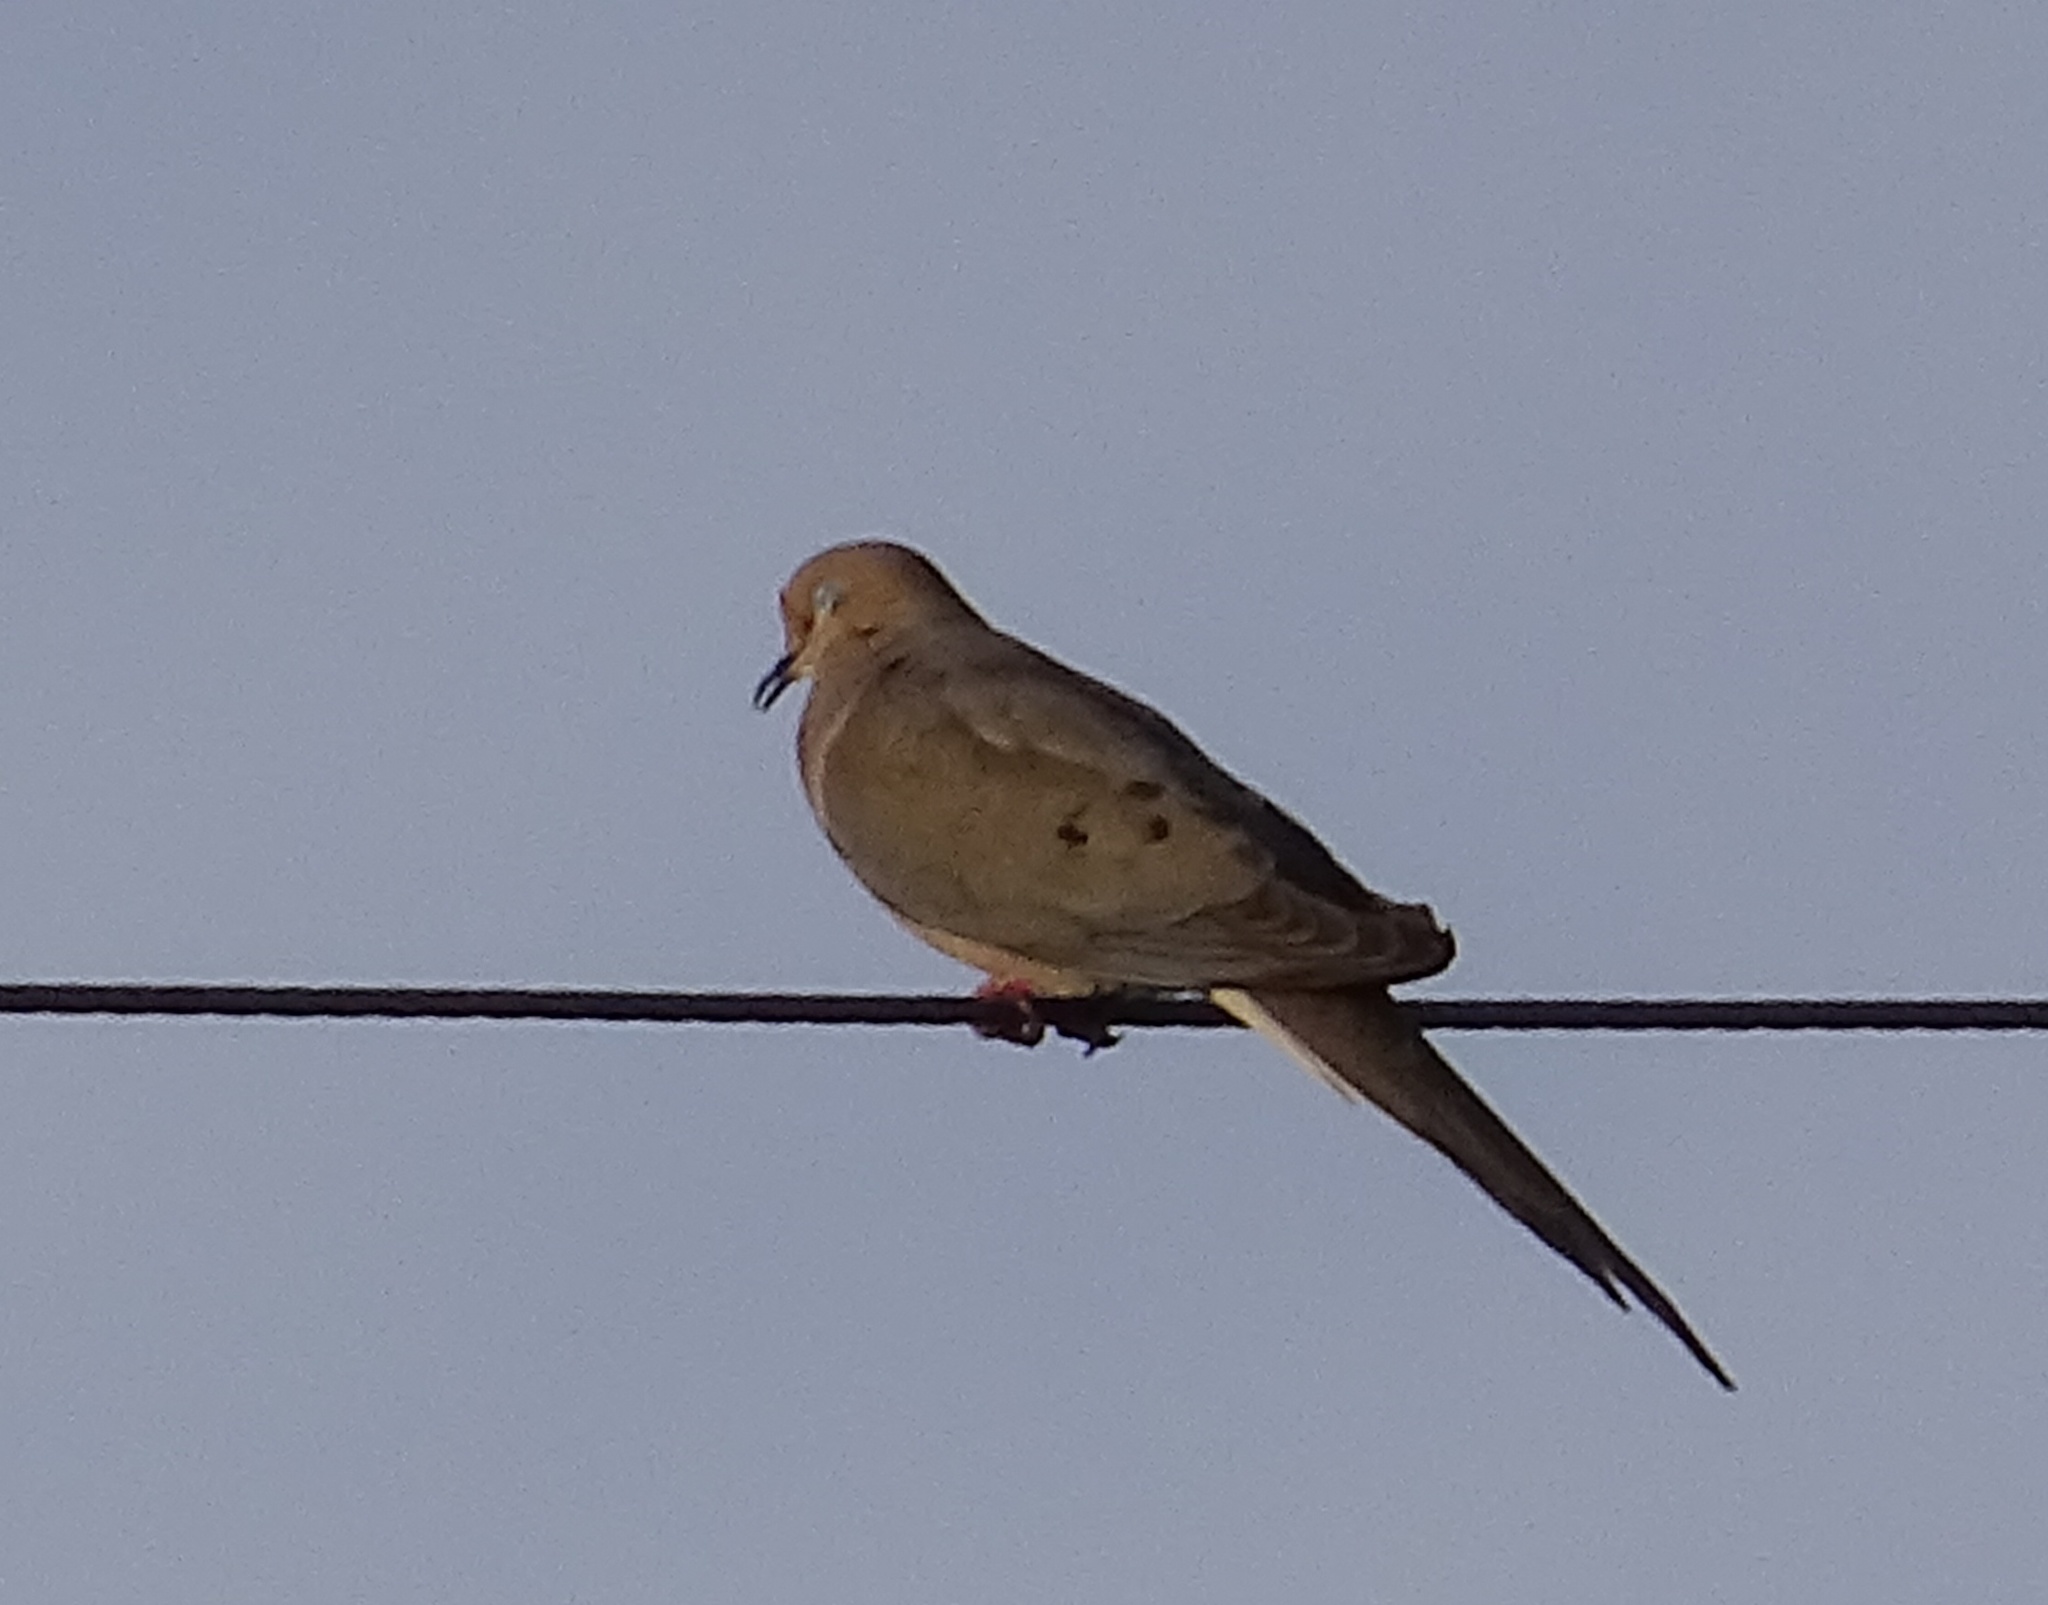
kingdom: Animalia
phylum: Chordata
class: Aves
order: Columbiformes
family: Columbidae
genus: Zenaida
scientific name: Zenaida macroura
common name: Mourning dove
